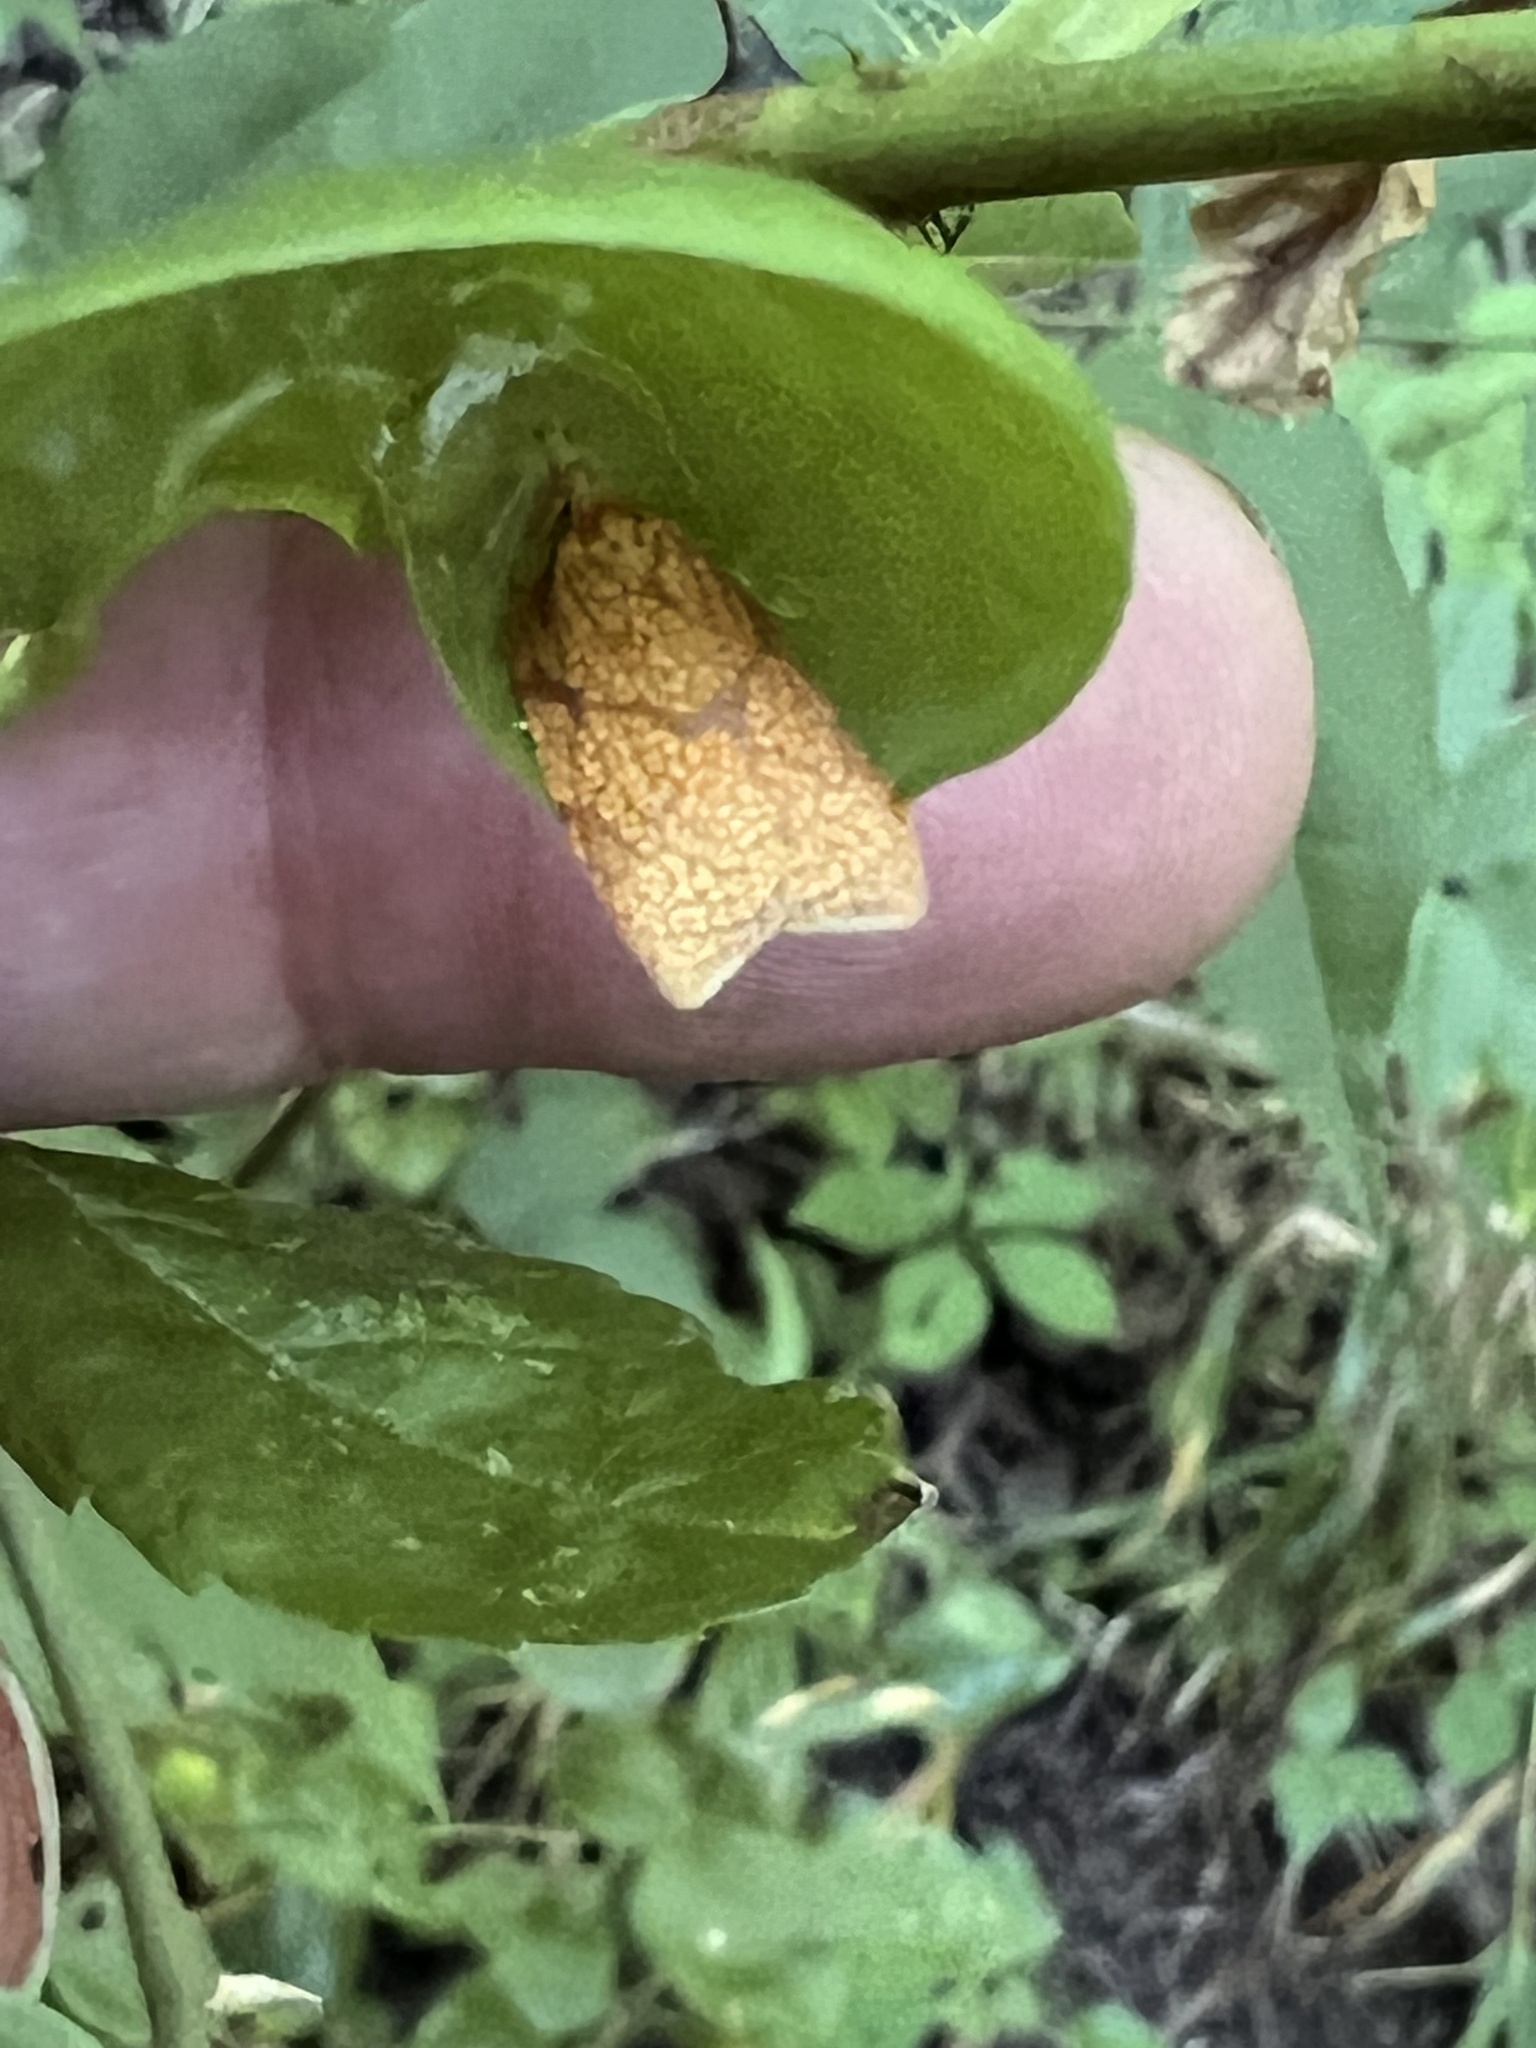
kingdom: Animalia
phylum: Arthropoda
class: Insecta
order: Lepidoptera
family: Tortricidae
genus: Cenopis
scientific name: Cenopis reticulatana
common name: Reticulated fruitworm moth
